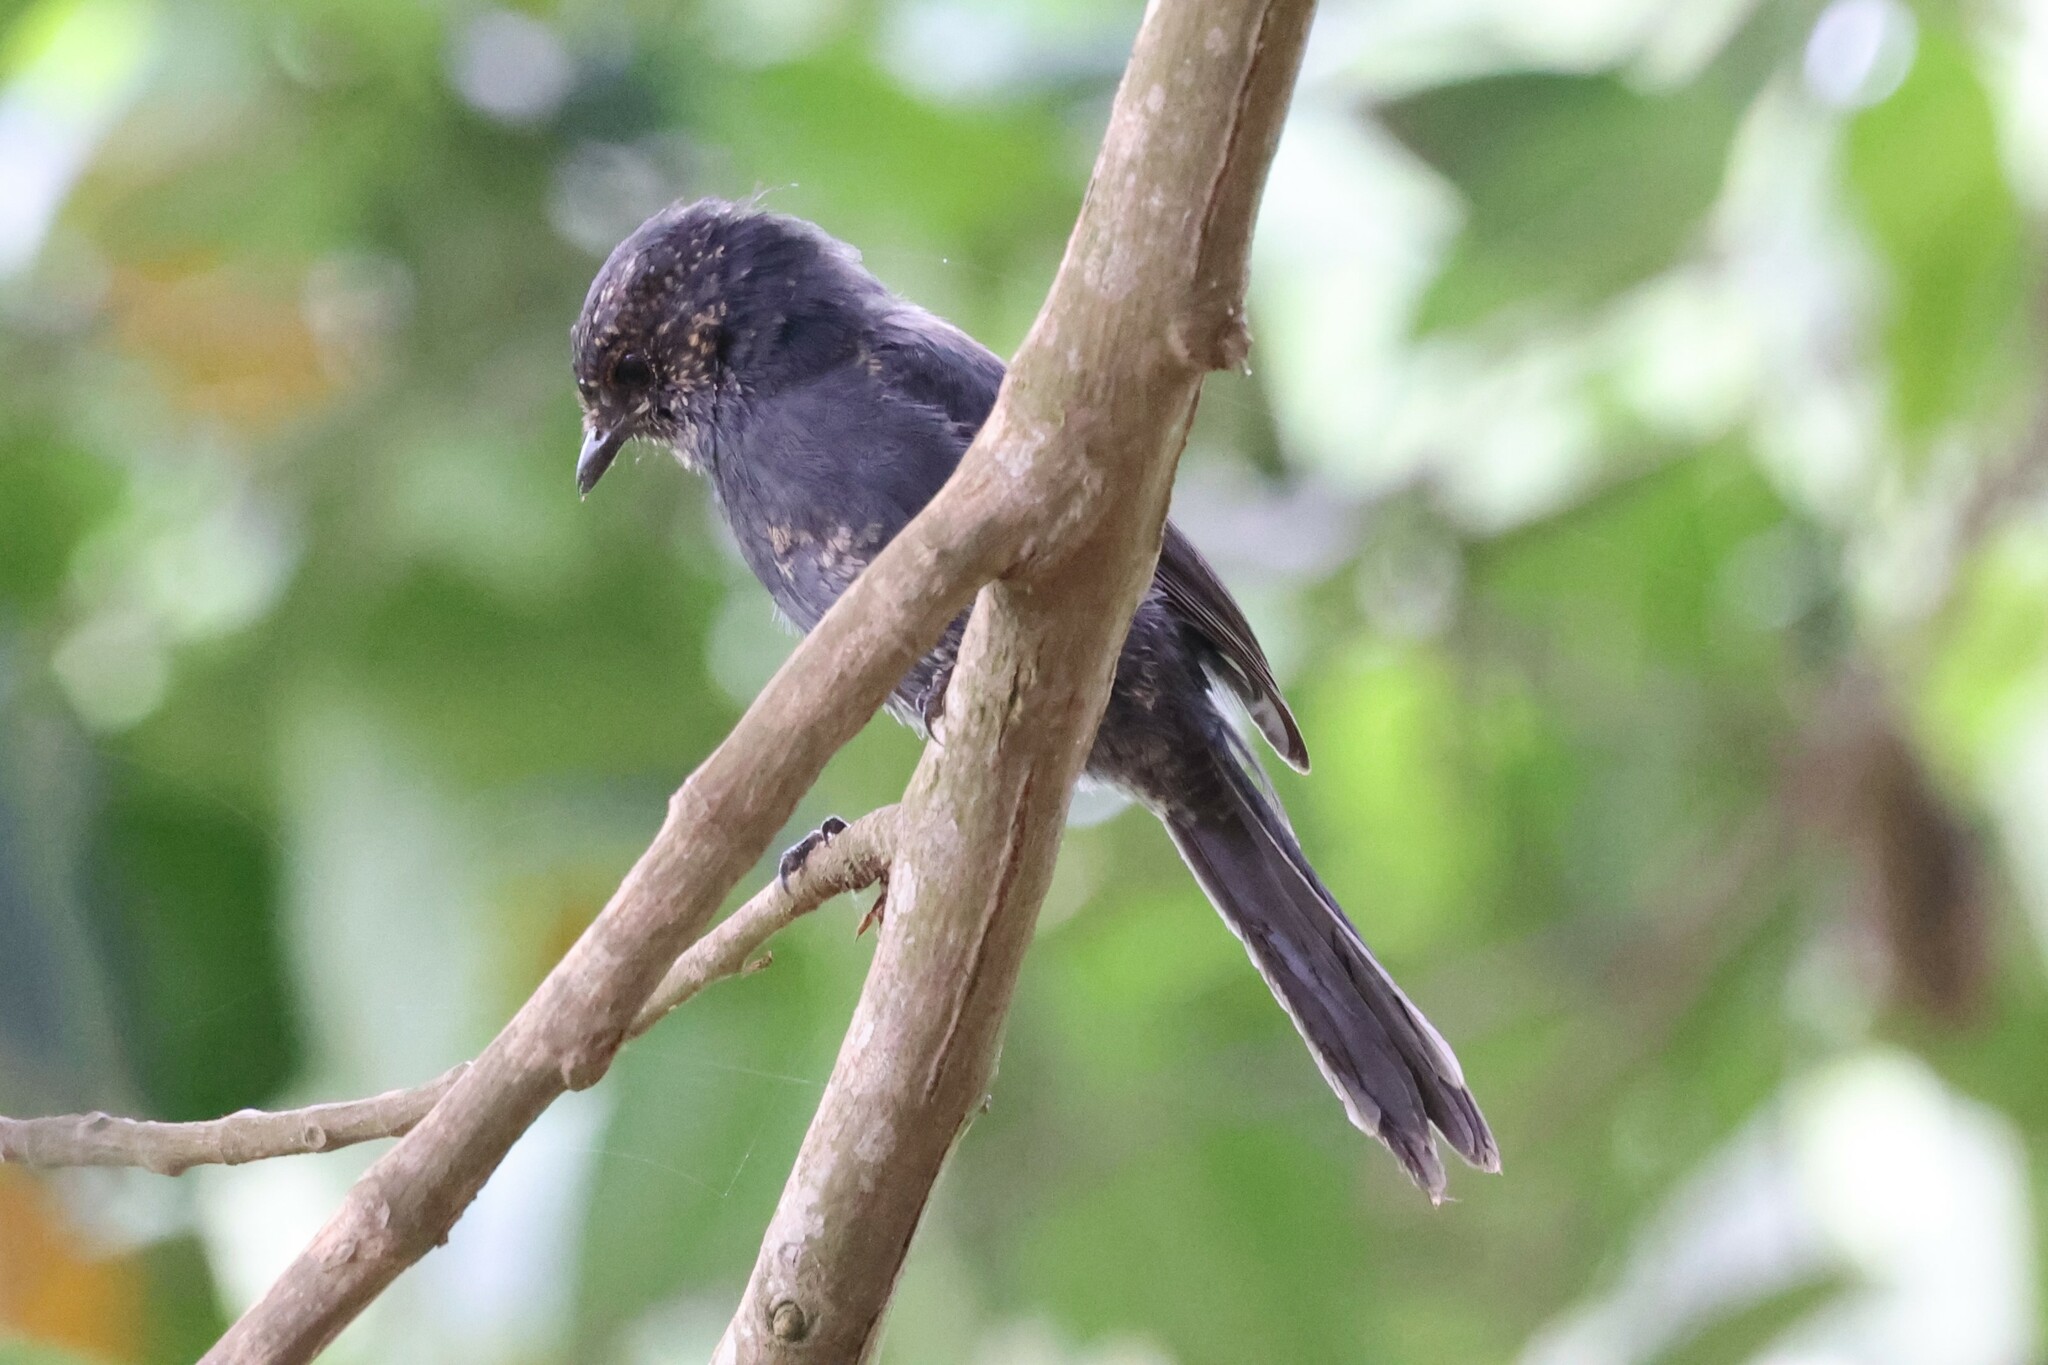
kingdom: Animalia
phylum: Chordata
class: Aves
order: Passeriformes
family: Muscicapidae
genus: Melaenornis
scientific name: Melaenornis edolioides
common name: Northern black flycatcher
